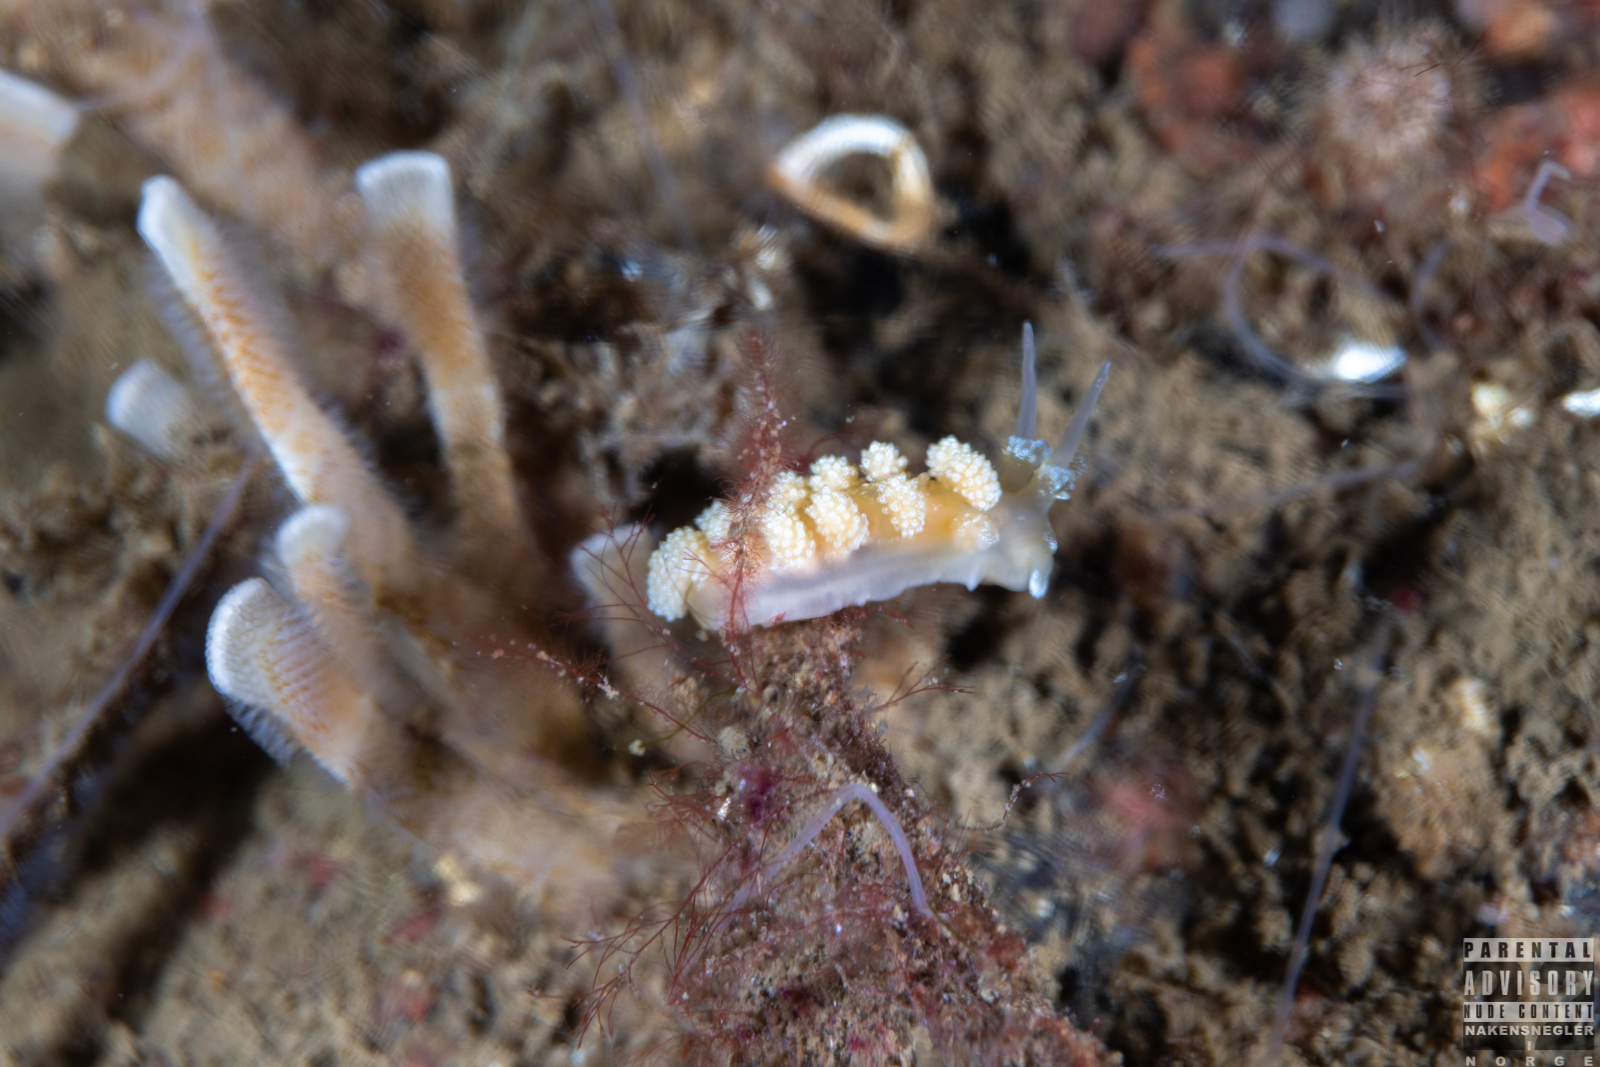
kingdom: Animalia
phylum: Mollusca
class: Gastropoda
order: Nudibranchia
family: Dotidae
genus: Doto
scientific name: Doto fragilis
